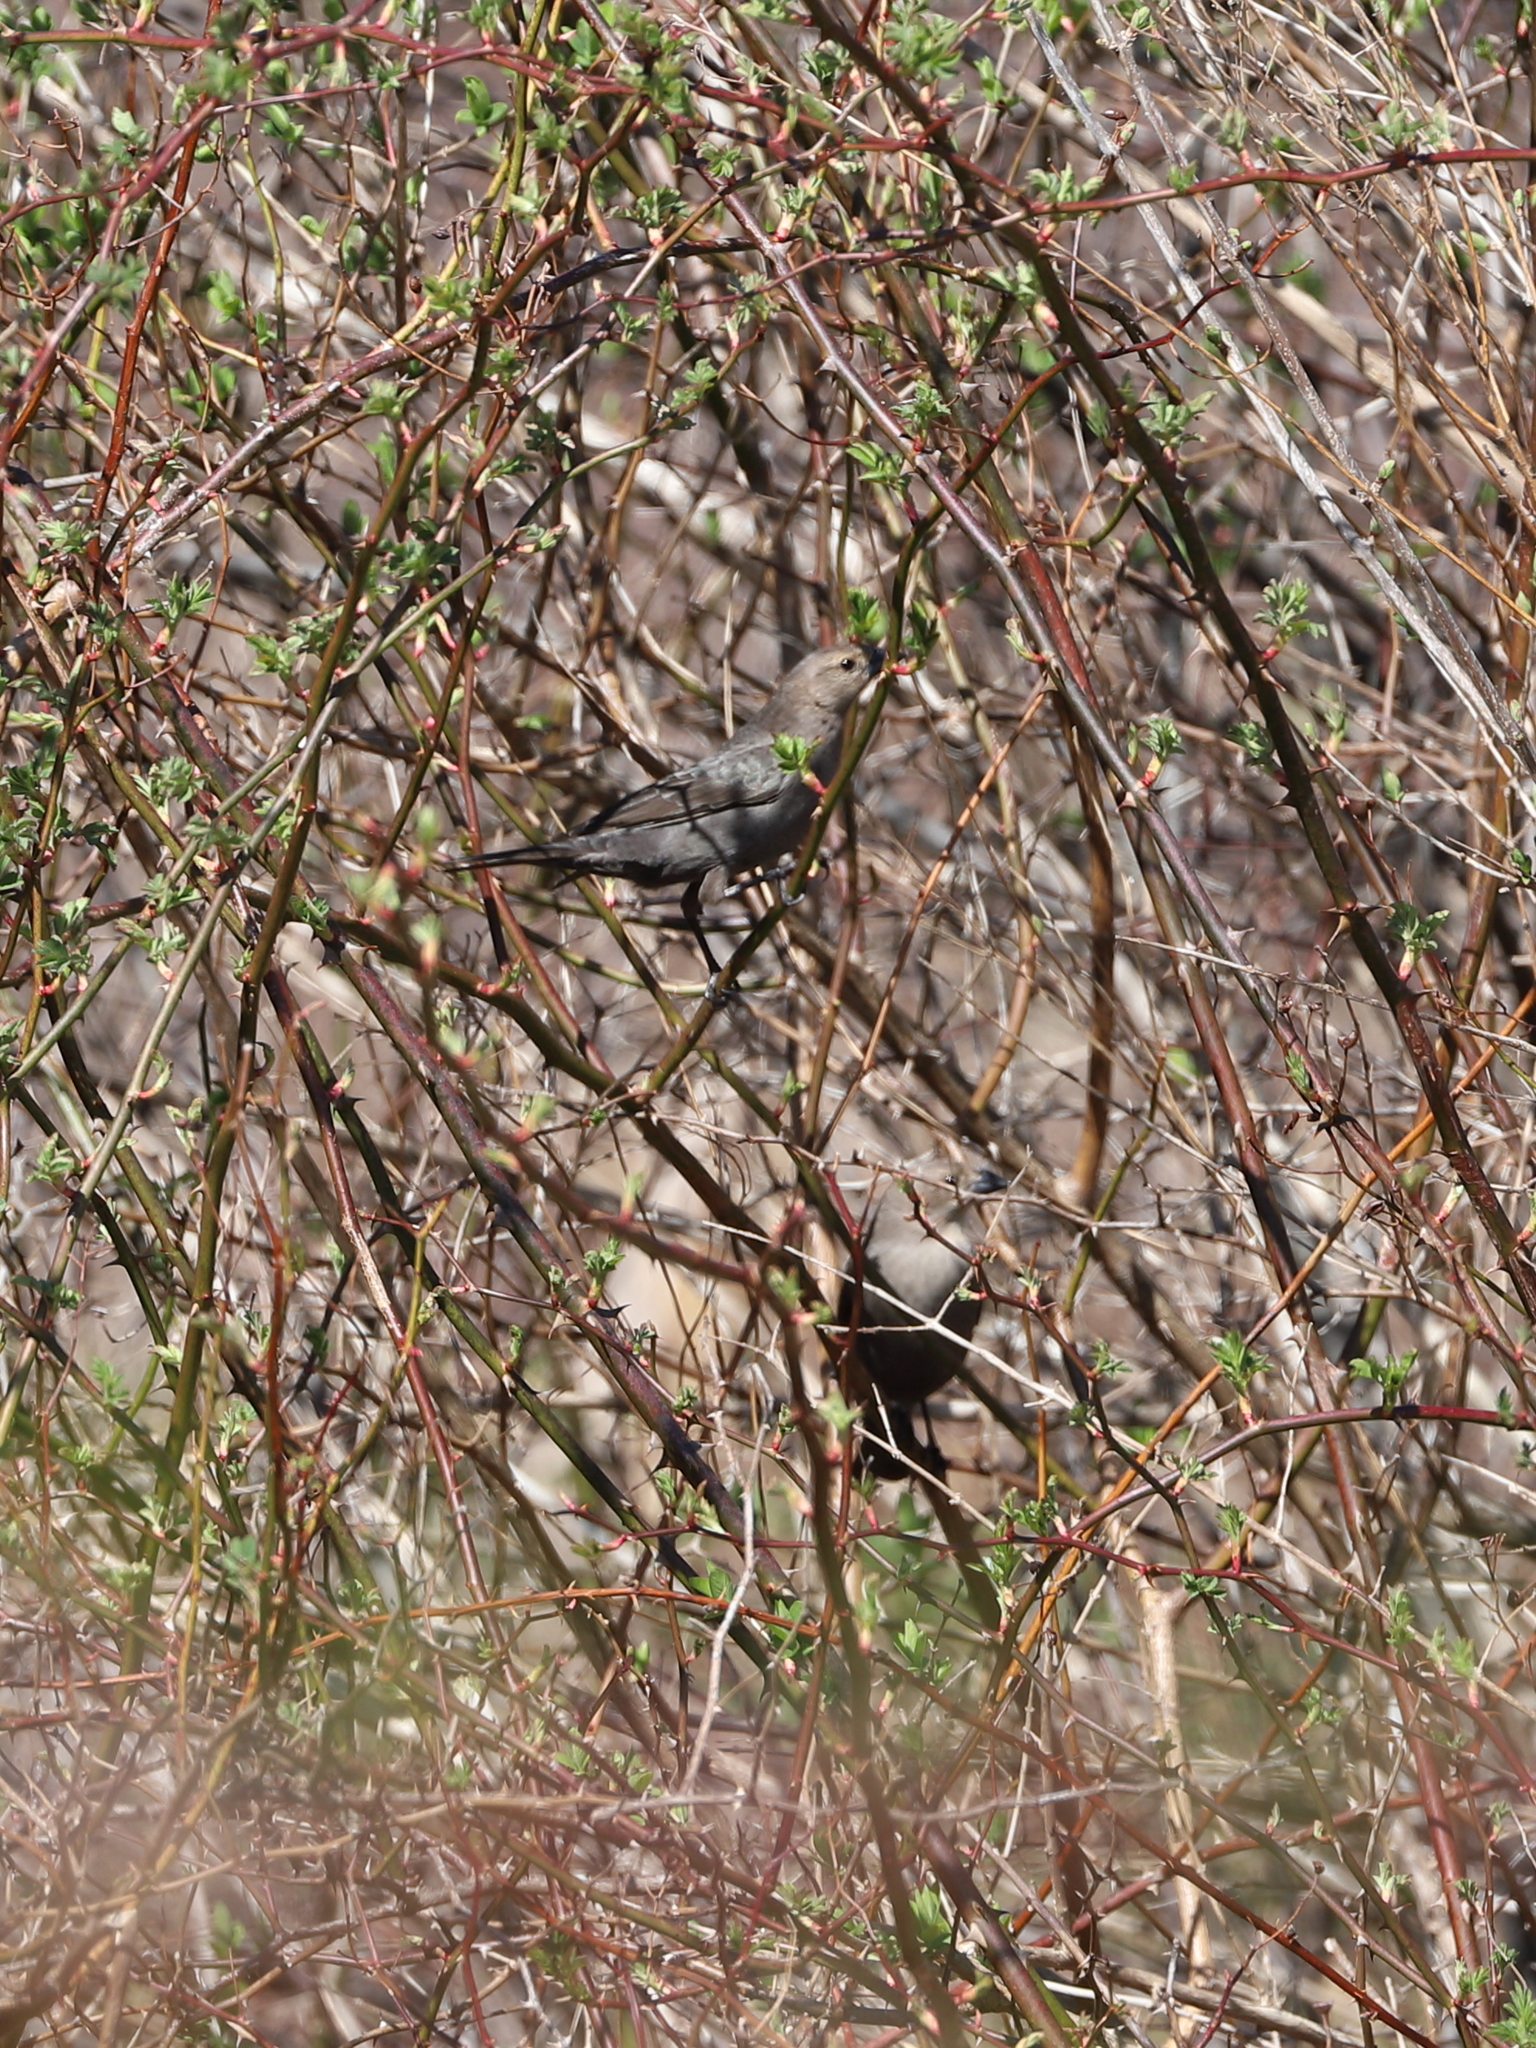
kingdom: Animalia
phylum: Chordata
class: Aves
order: Passeriformes
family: Icteridae
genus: Molothrus
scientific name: Molothrus ater
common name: Brown-headed cowbird
